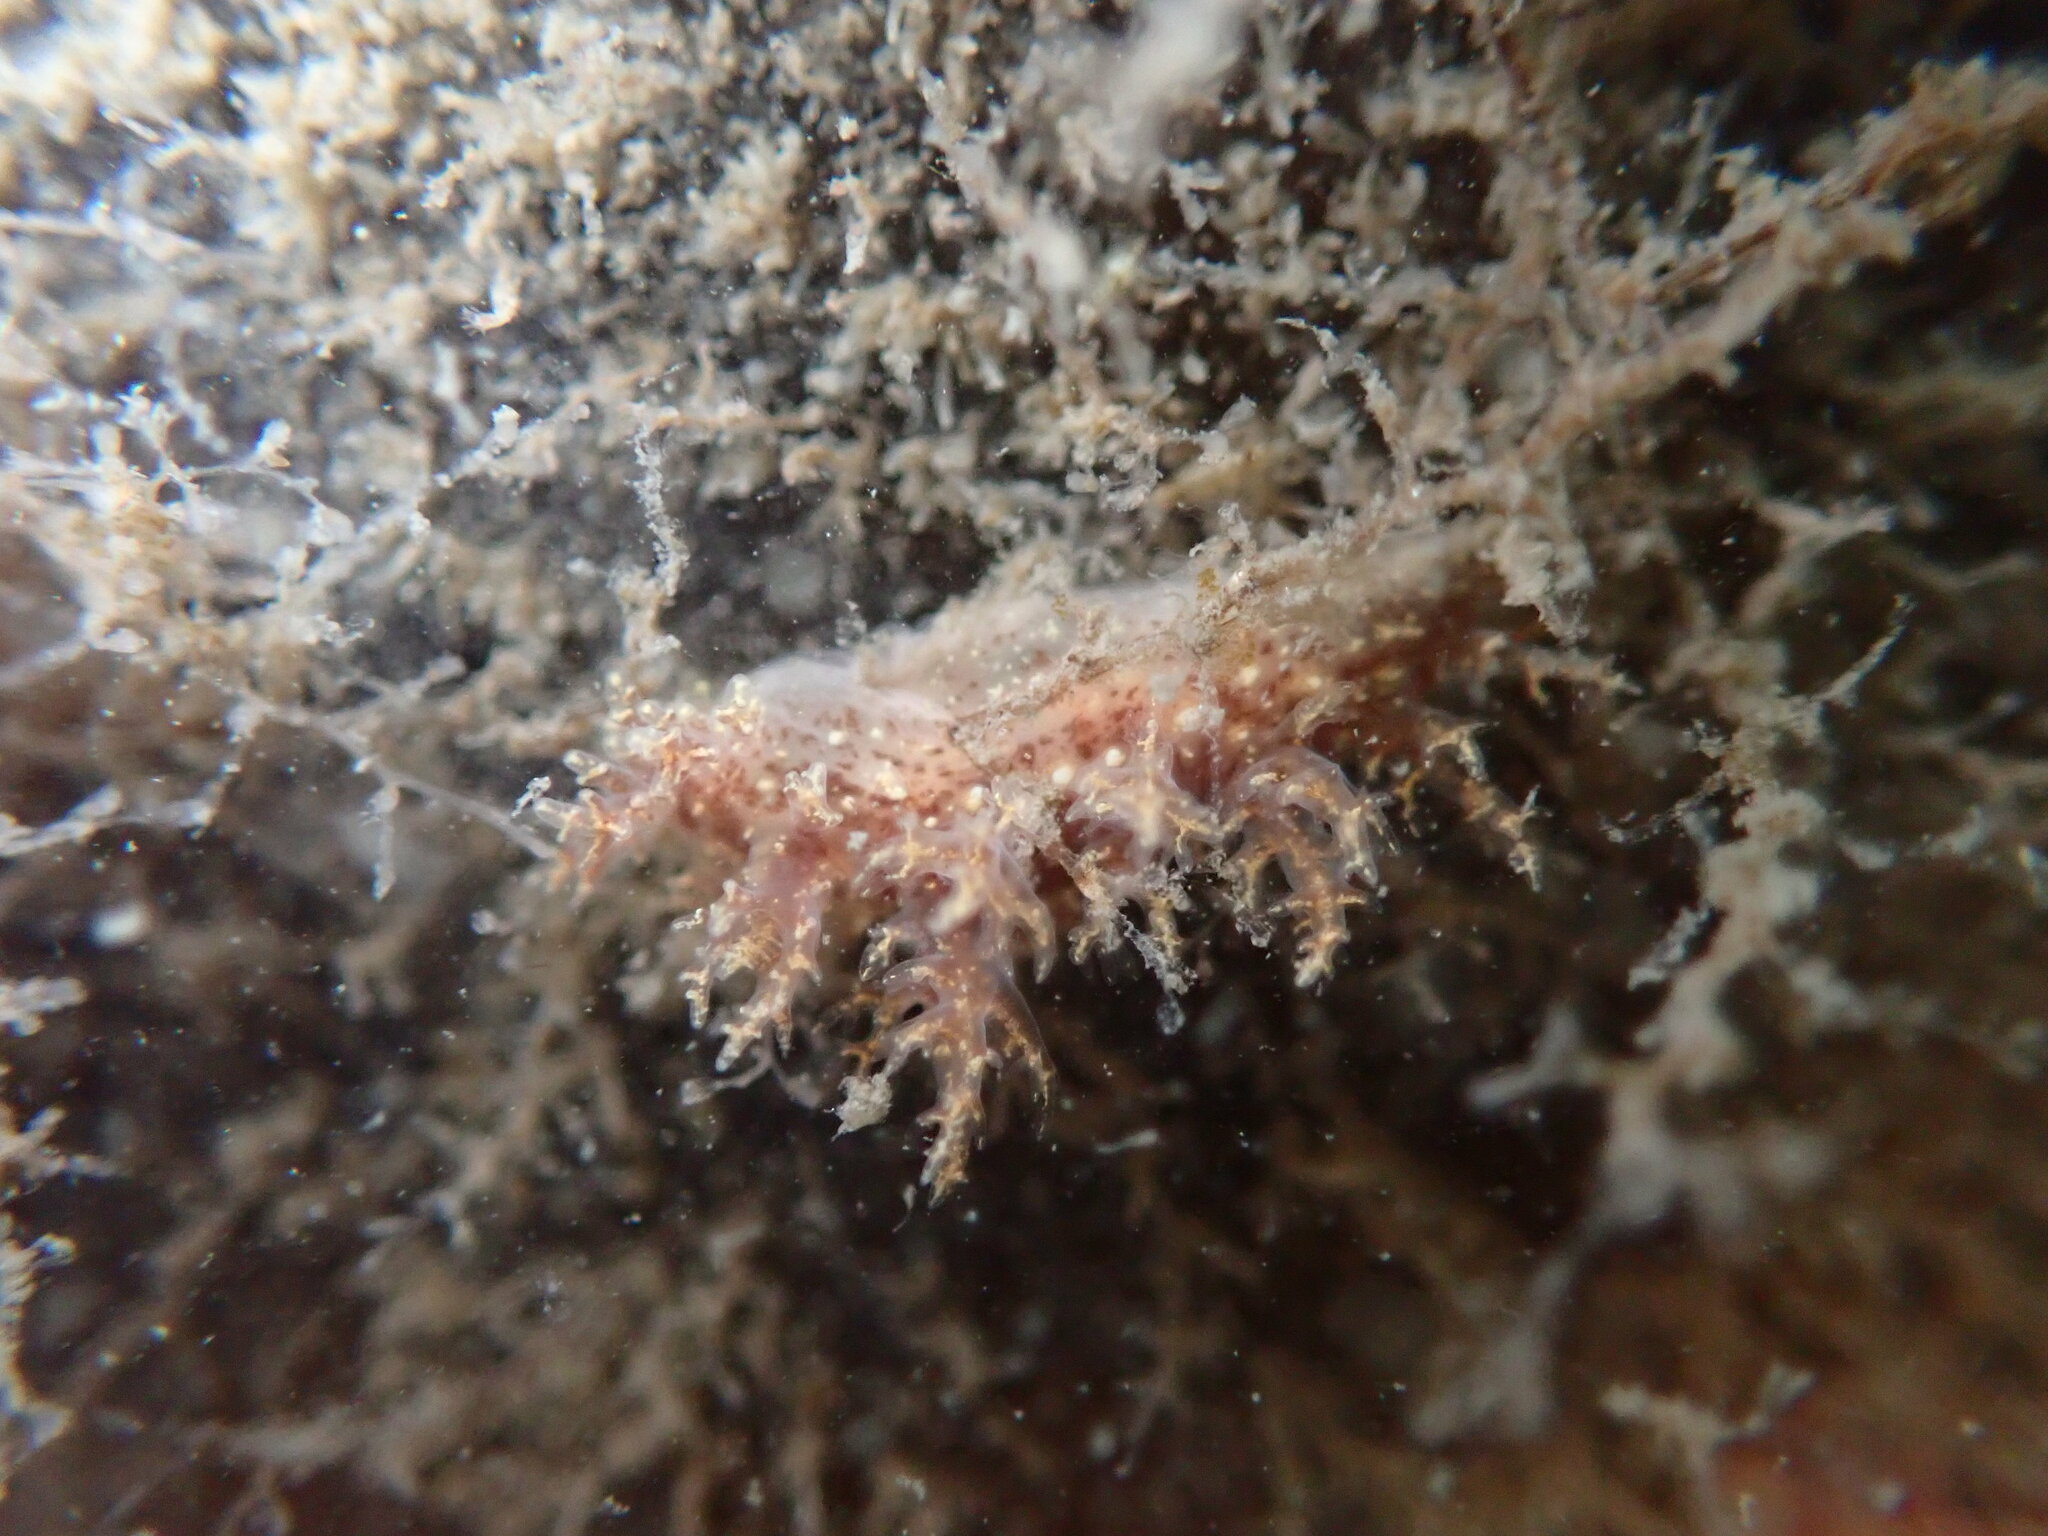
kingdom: Animalia
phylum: Mollusca
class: Gastropoda
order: Nudibranchia
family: Dendronotidae
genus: Dendronotus
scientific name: Dendronotus venustus
